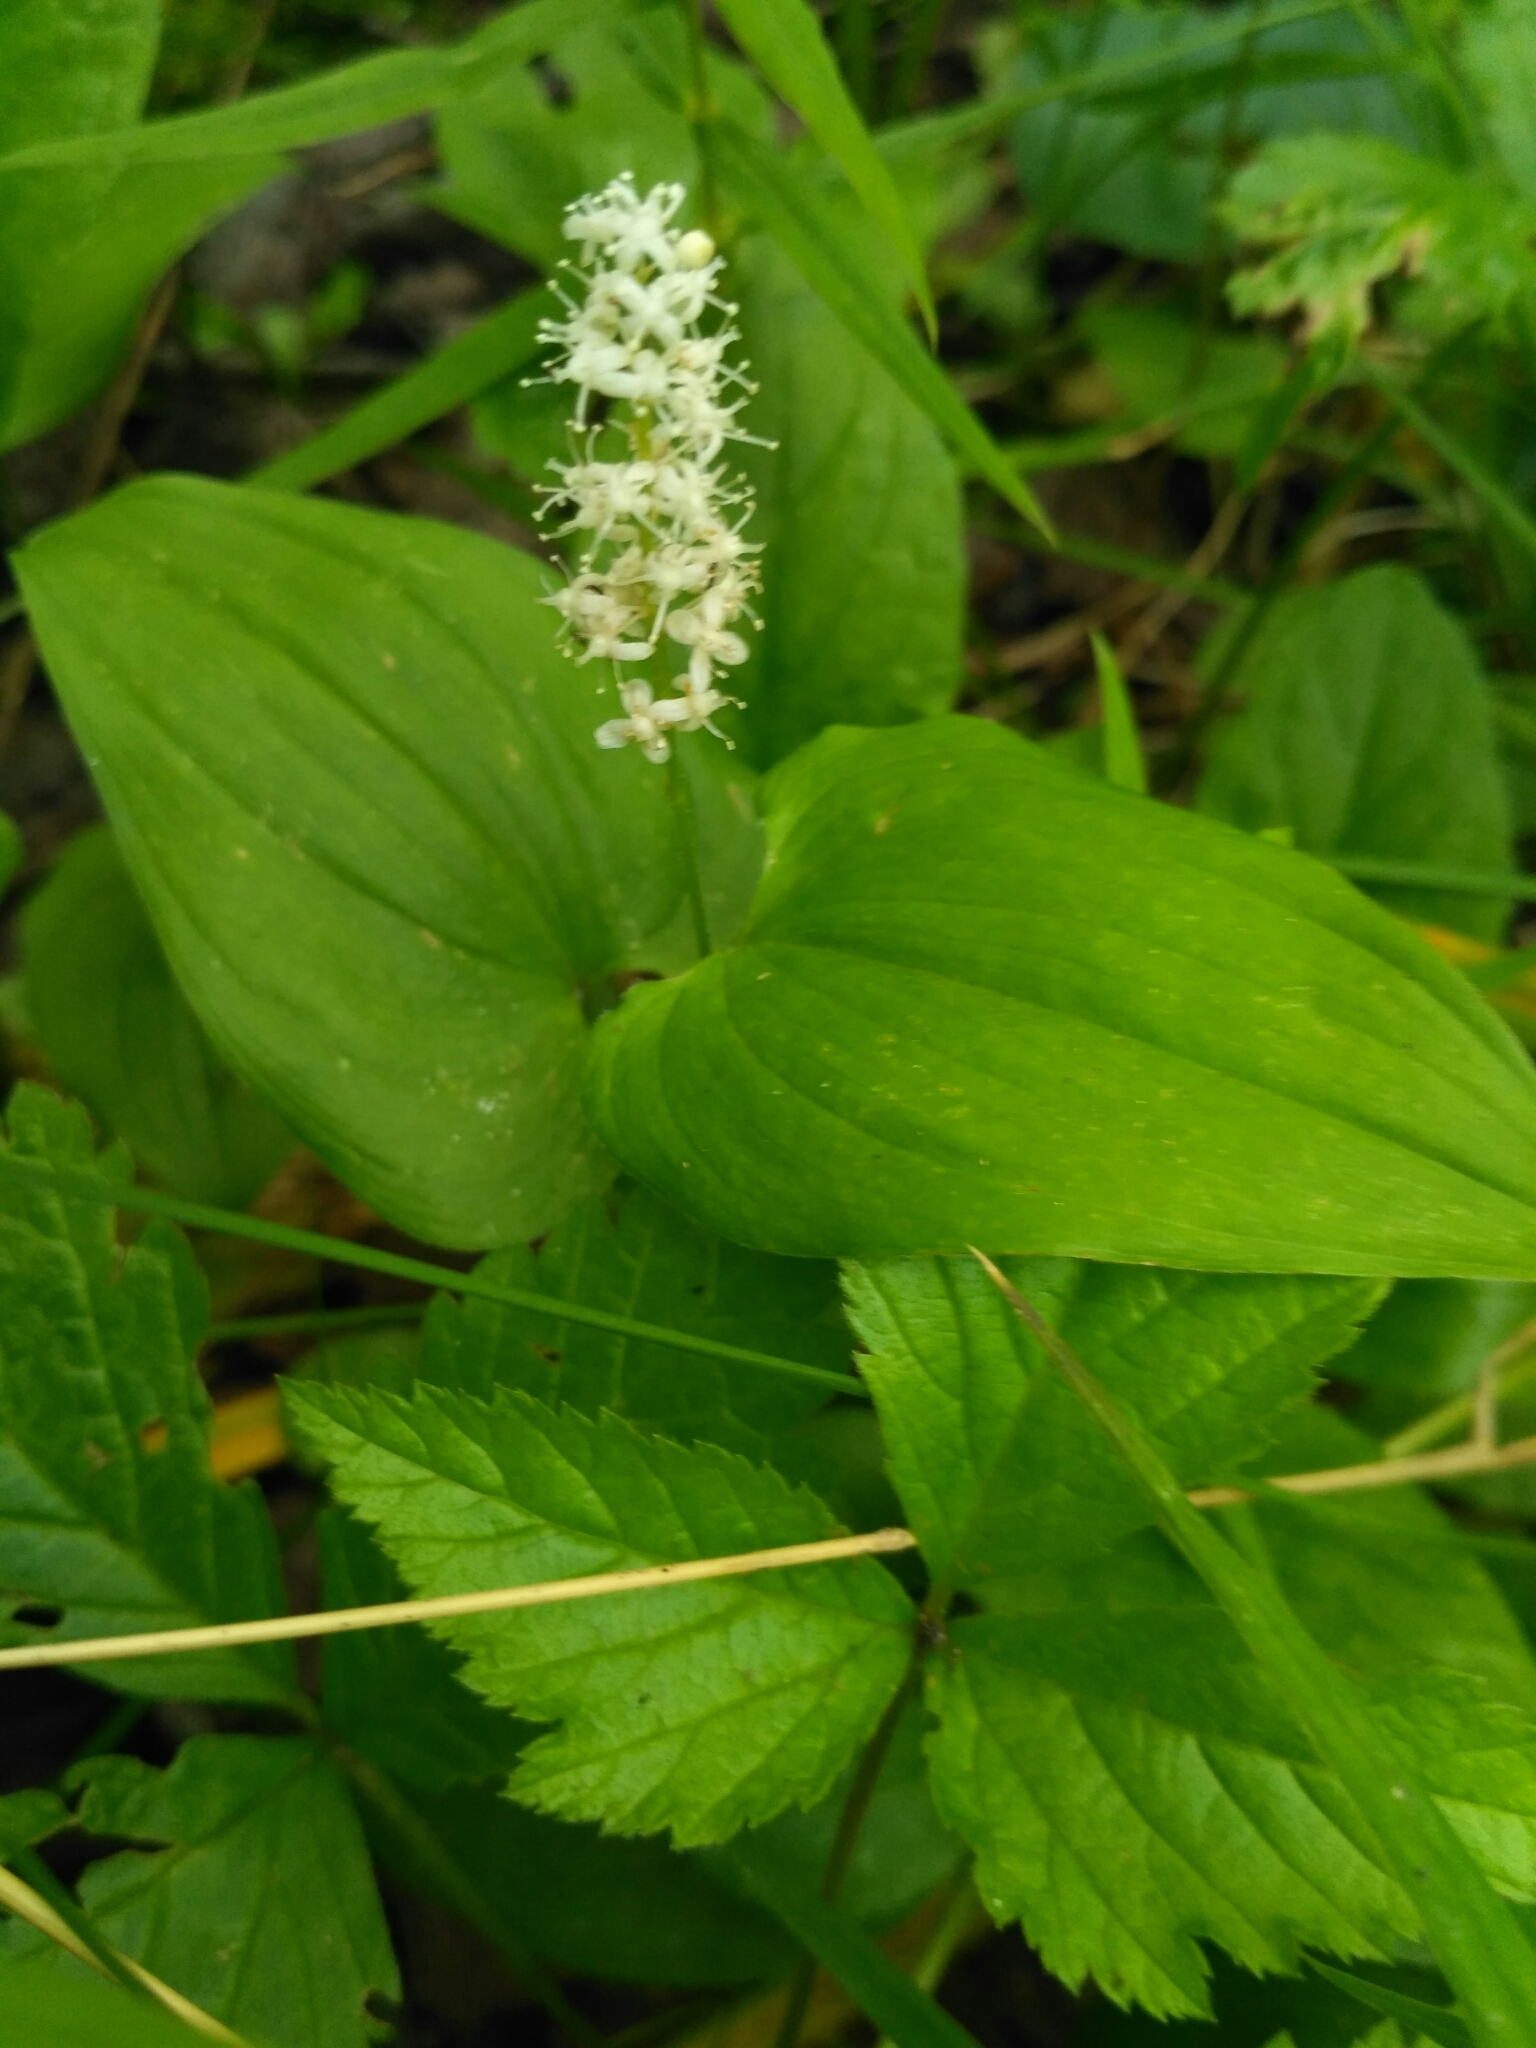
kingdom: Plantae
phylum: Tracheophyta
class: Liliopsida
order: Asparagales
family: Asparagaceae
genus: Maianthemum
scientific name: Maianthemum bifolium
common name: May lily
